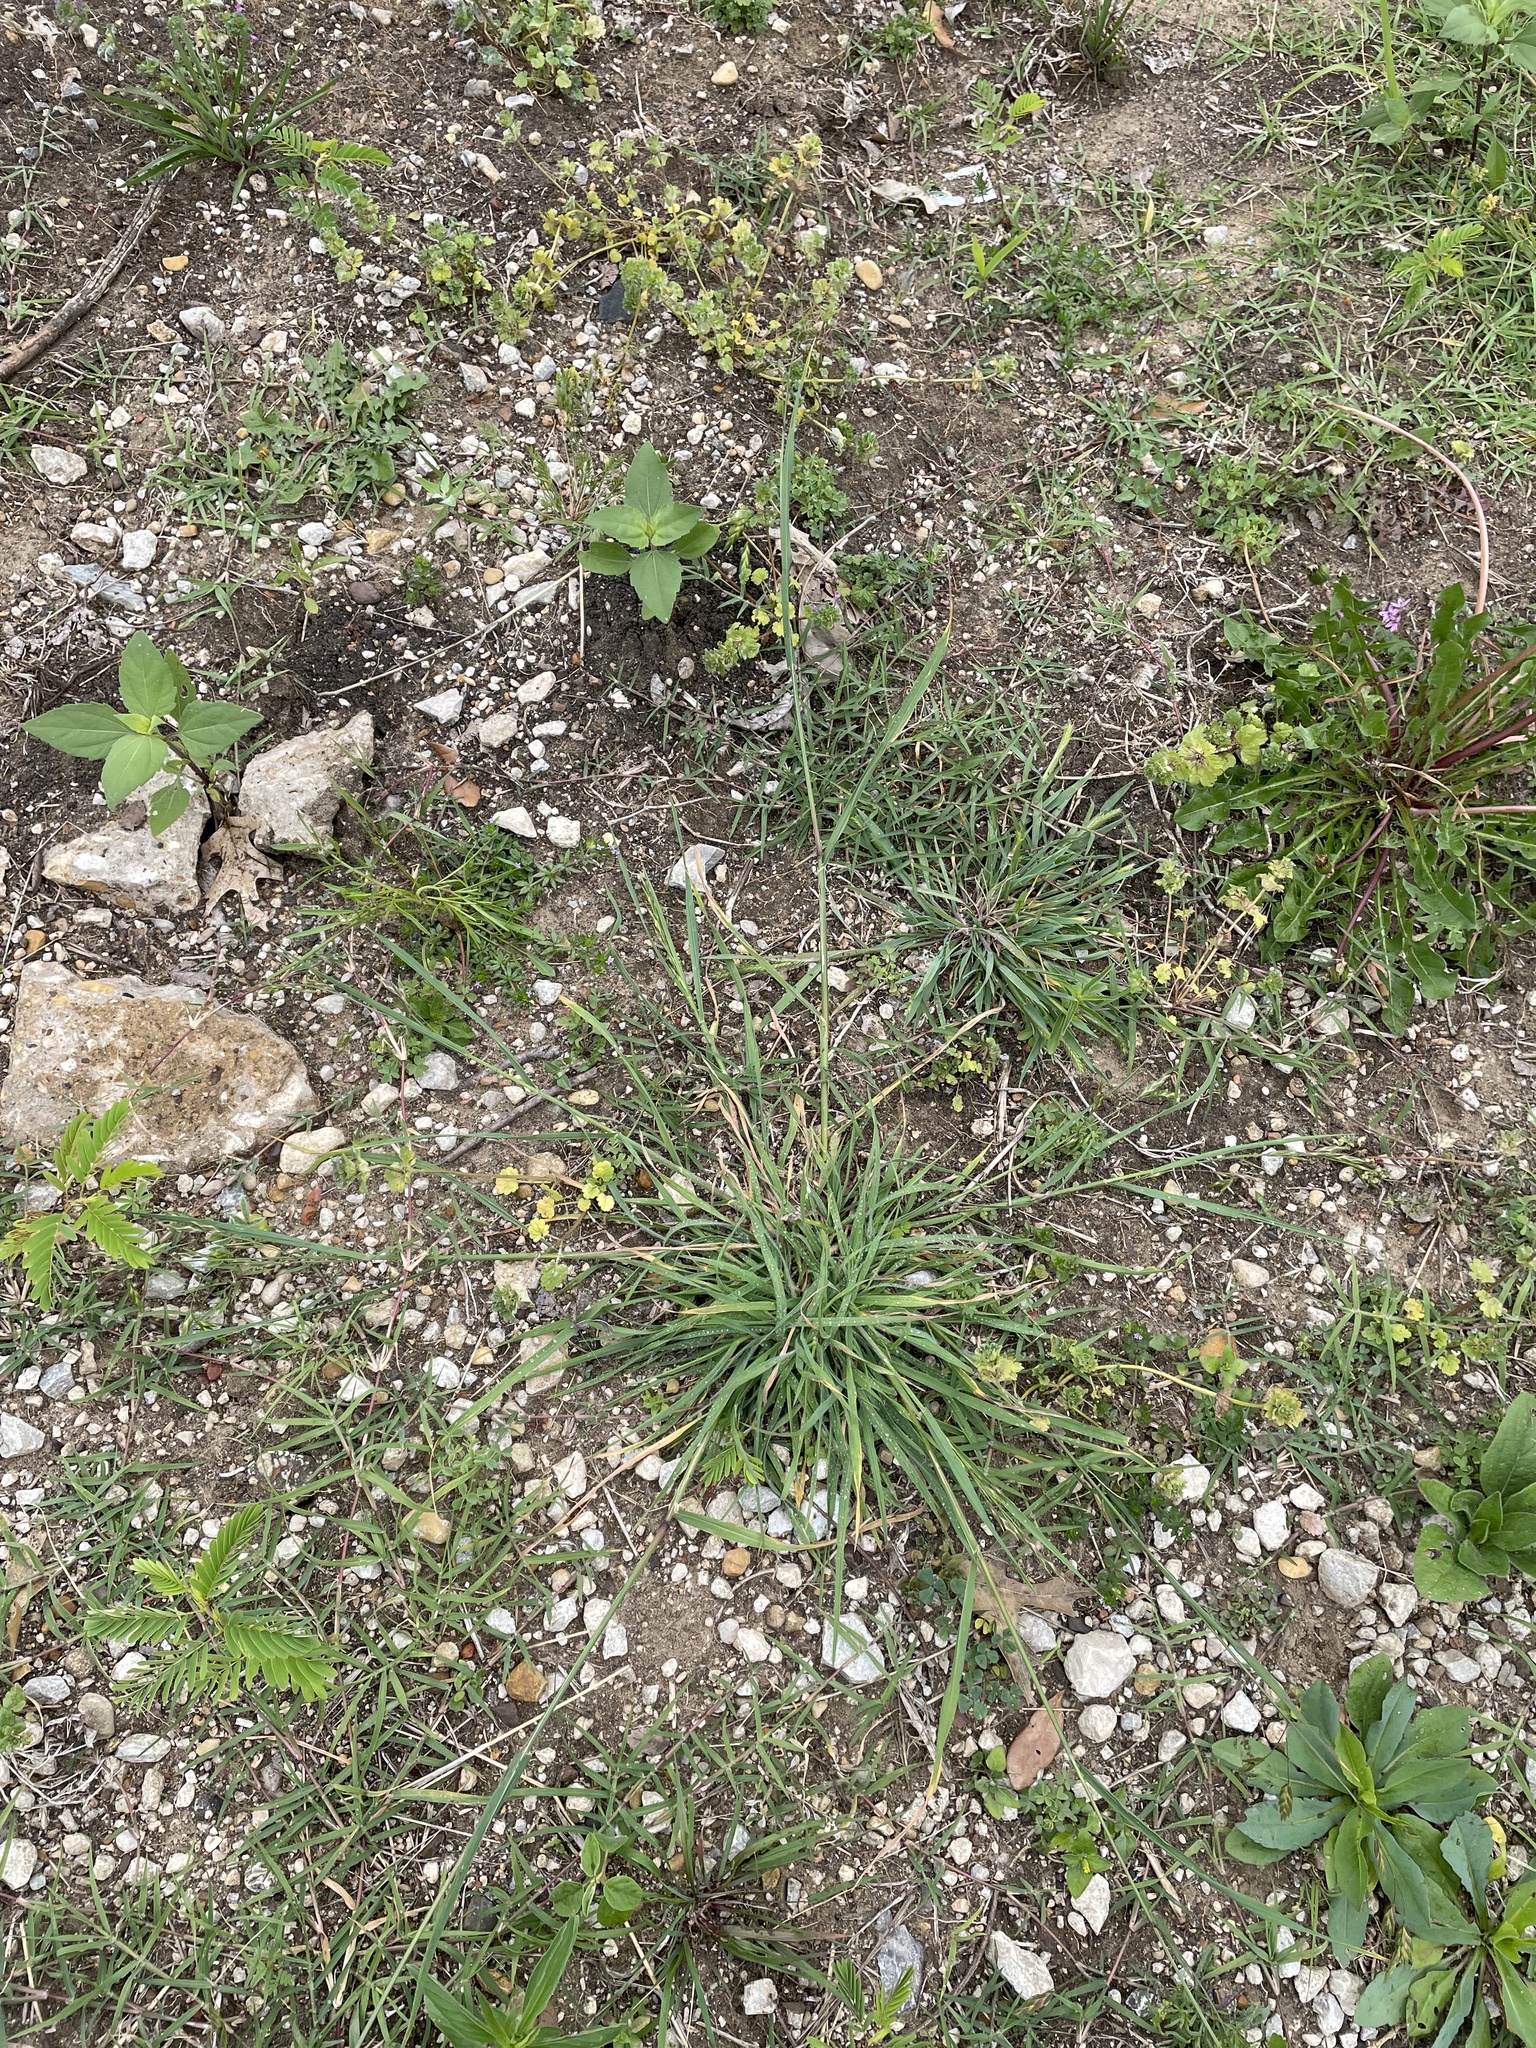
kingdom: Plantae
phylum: Tracheophyta
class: Liliopsida
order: Poales
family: Poaceae
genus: Bromus
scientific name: Bromus catharticus
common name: Rescuegrass
